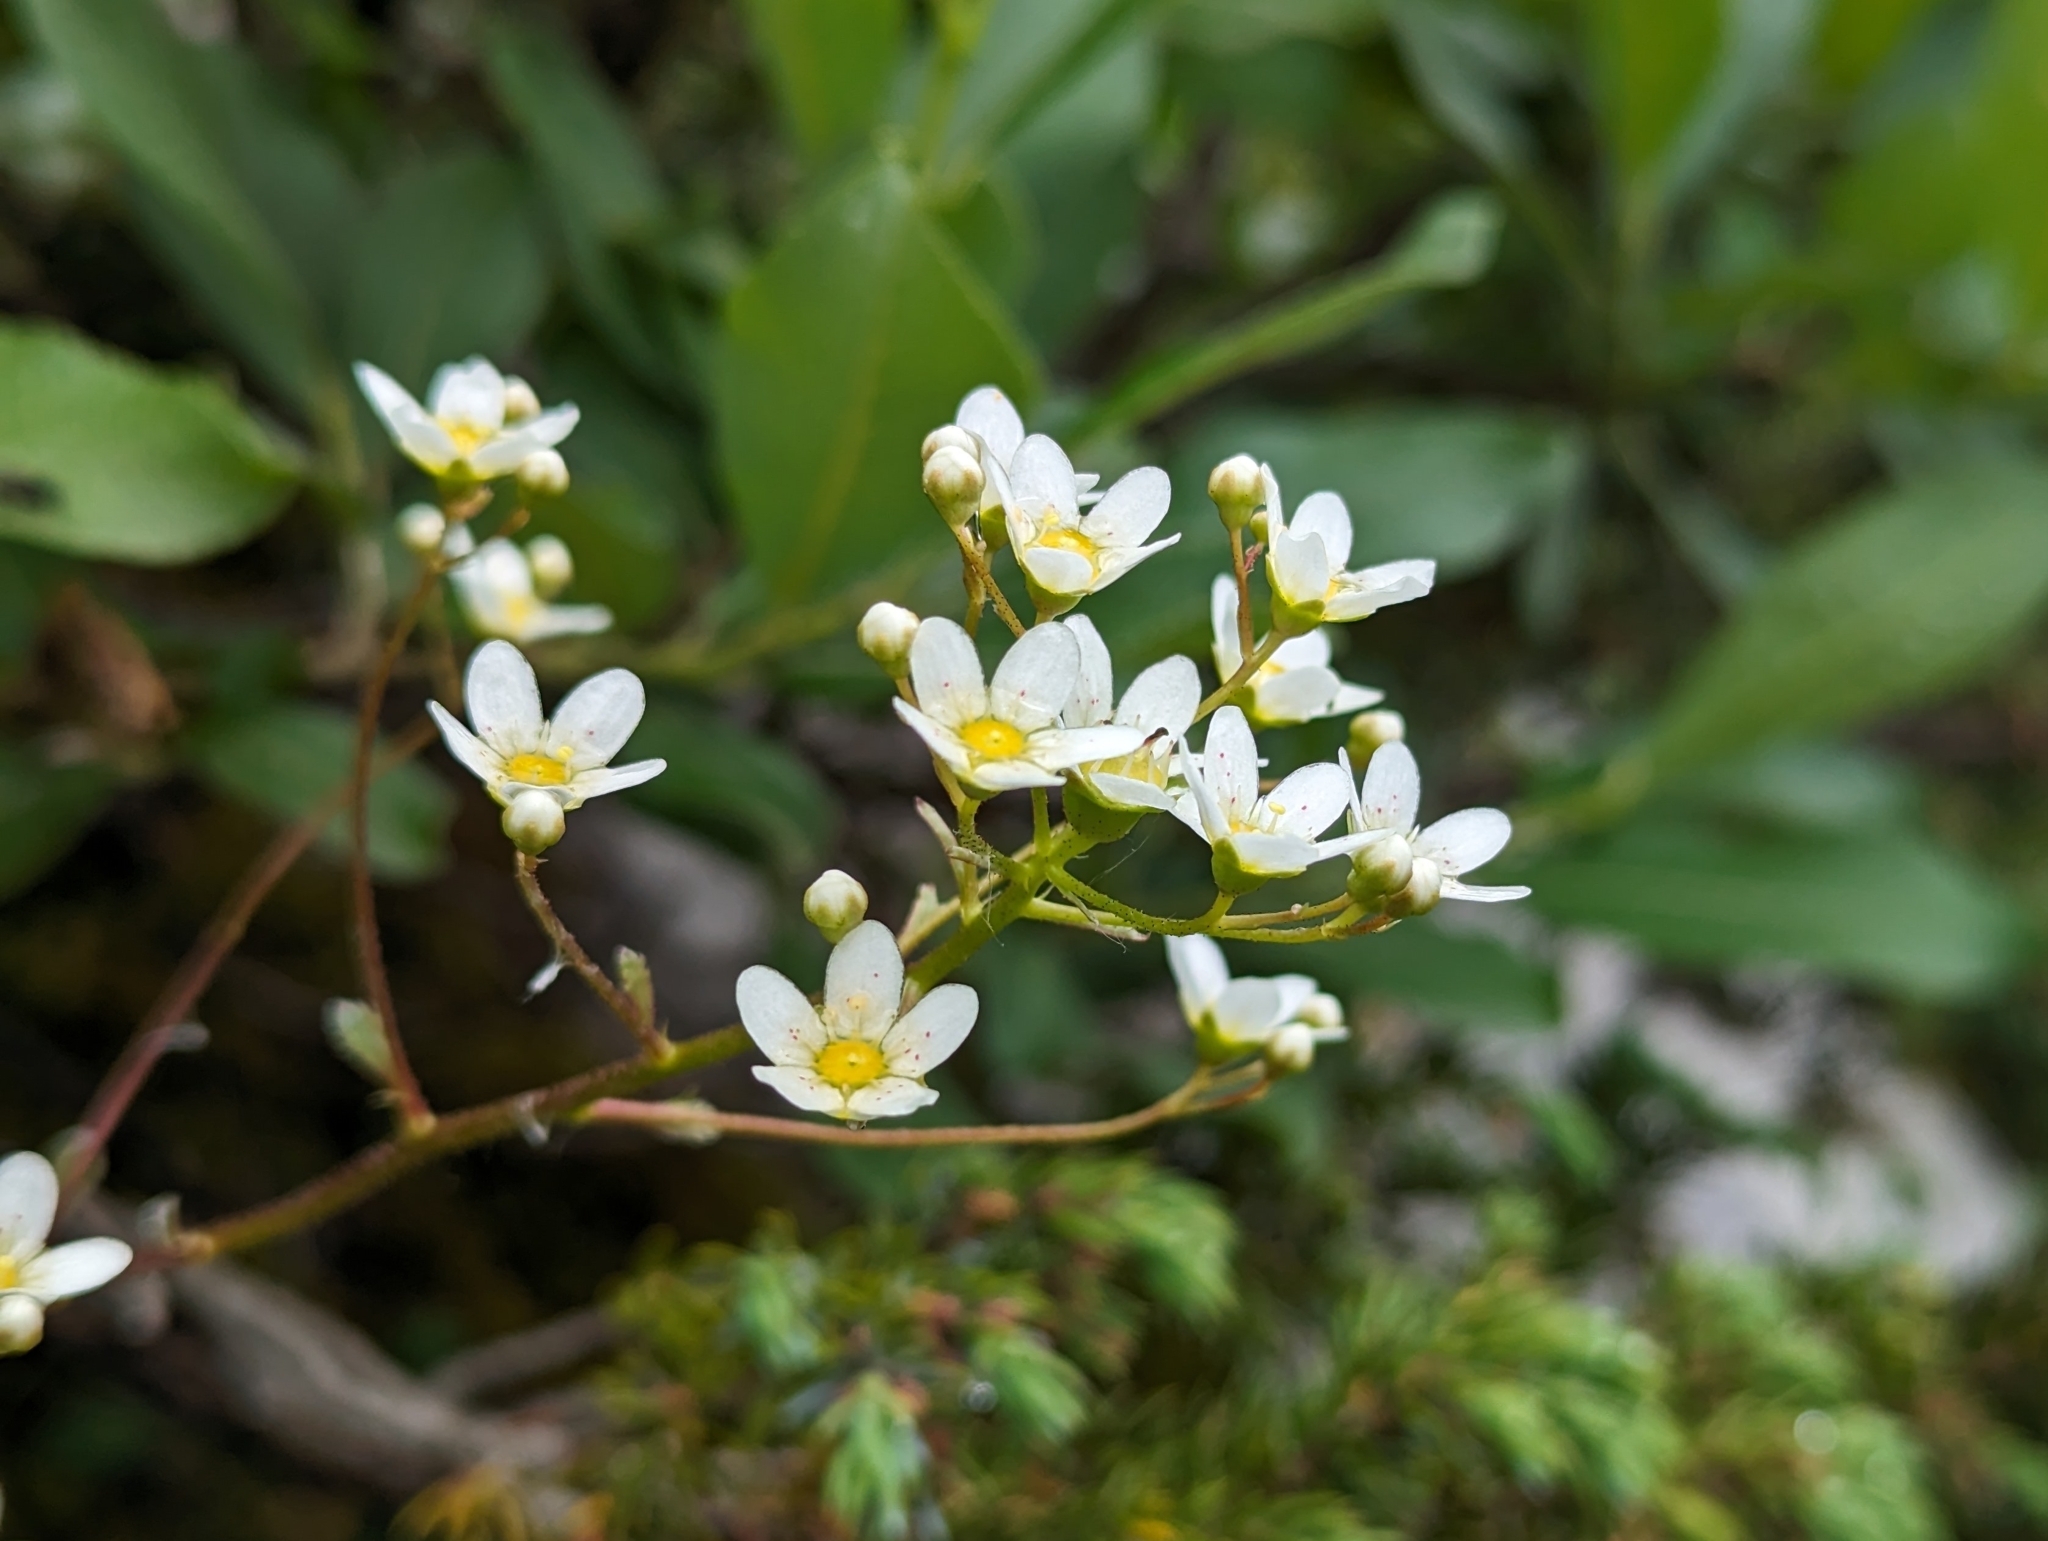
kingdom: Plantae
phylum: Tracheophyta
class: Magnoliopsida
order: Saxifragales
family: Saxifragaceae
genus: Saxifraga
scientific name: Saxifraga paniculata
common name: Livelong saxifrage
